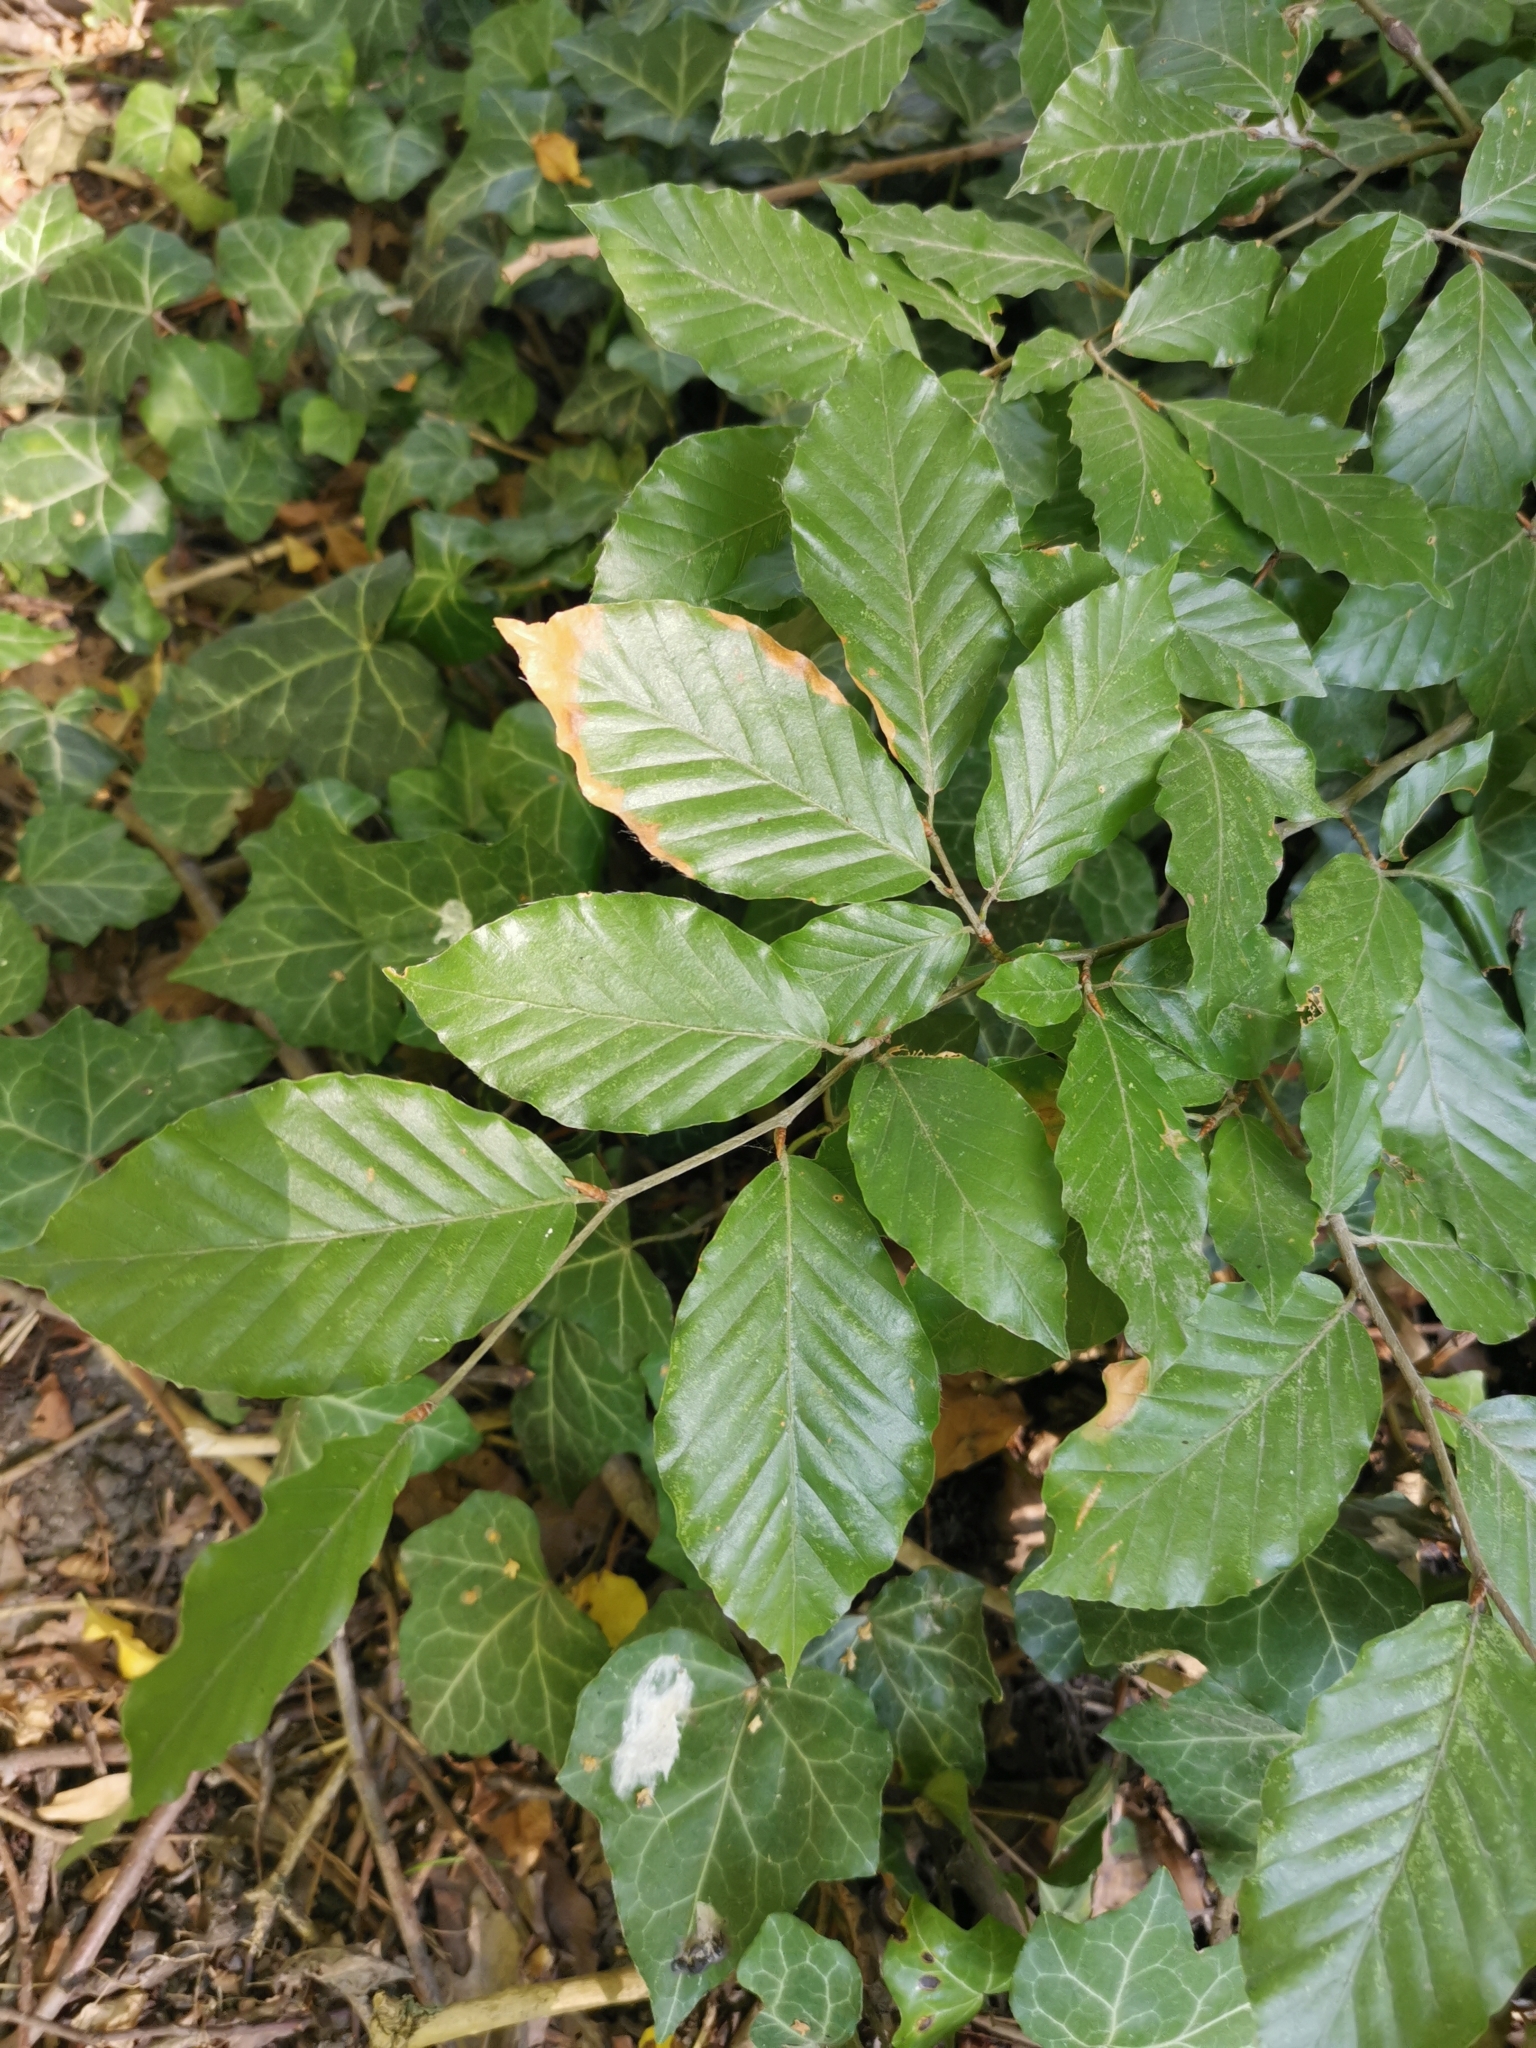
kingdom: Plantae
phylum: Tracheophyta
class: Magnoliopsida
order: Fagales
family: Fagaceae
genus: Fagus
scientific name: Fagus sylvatica
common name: Beech
